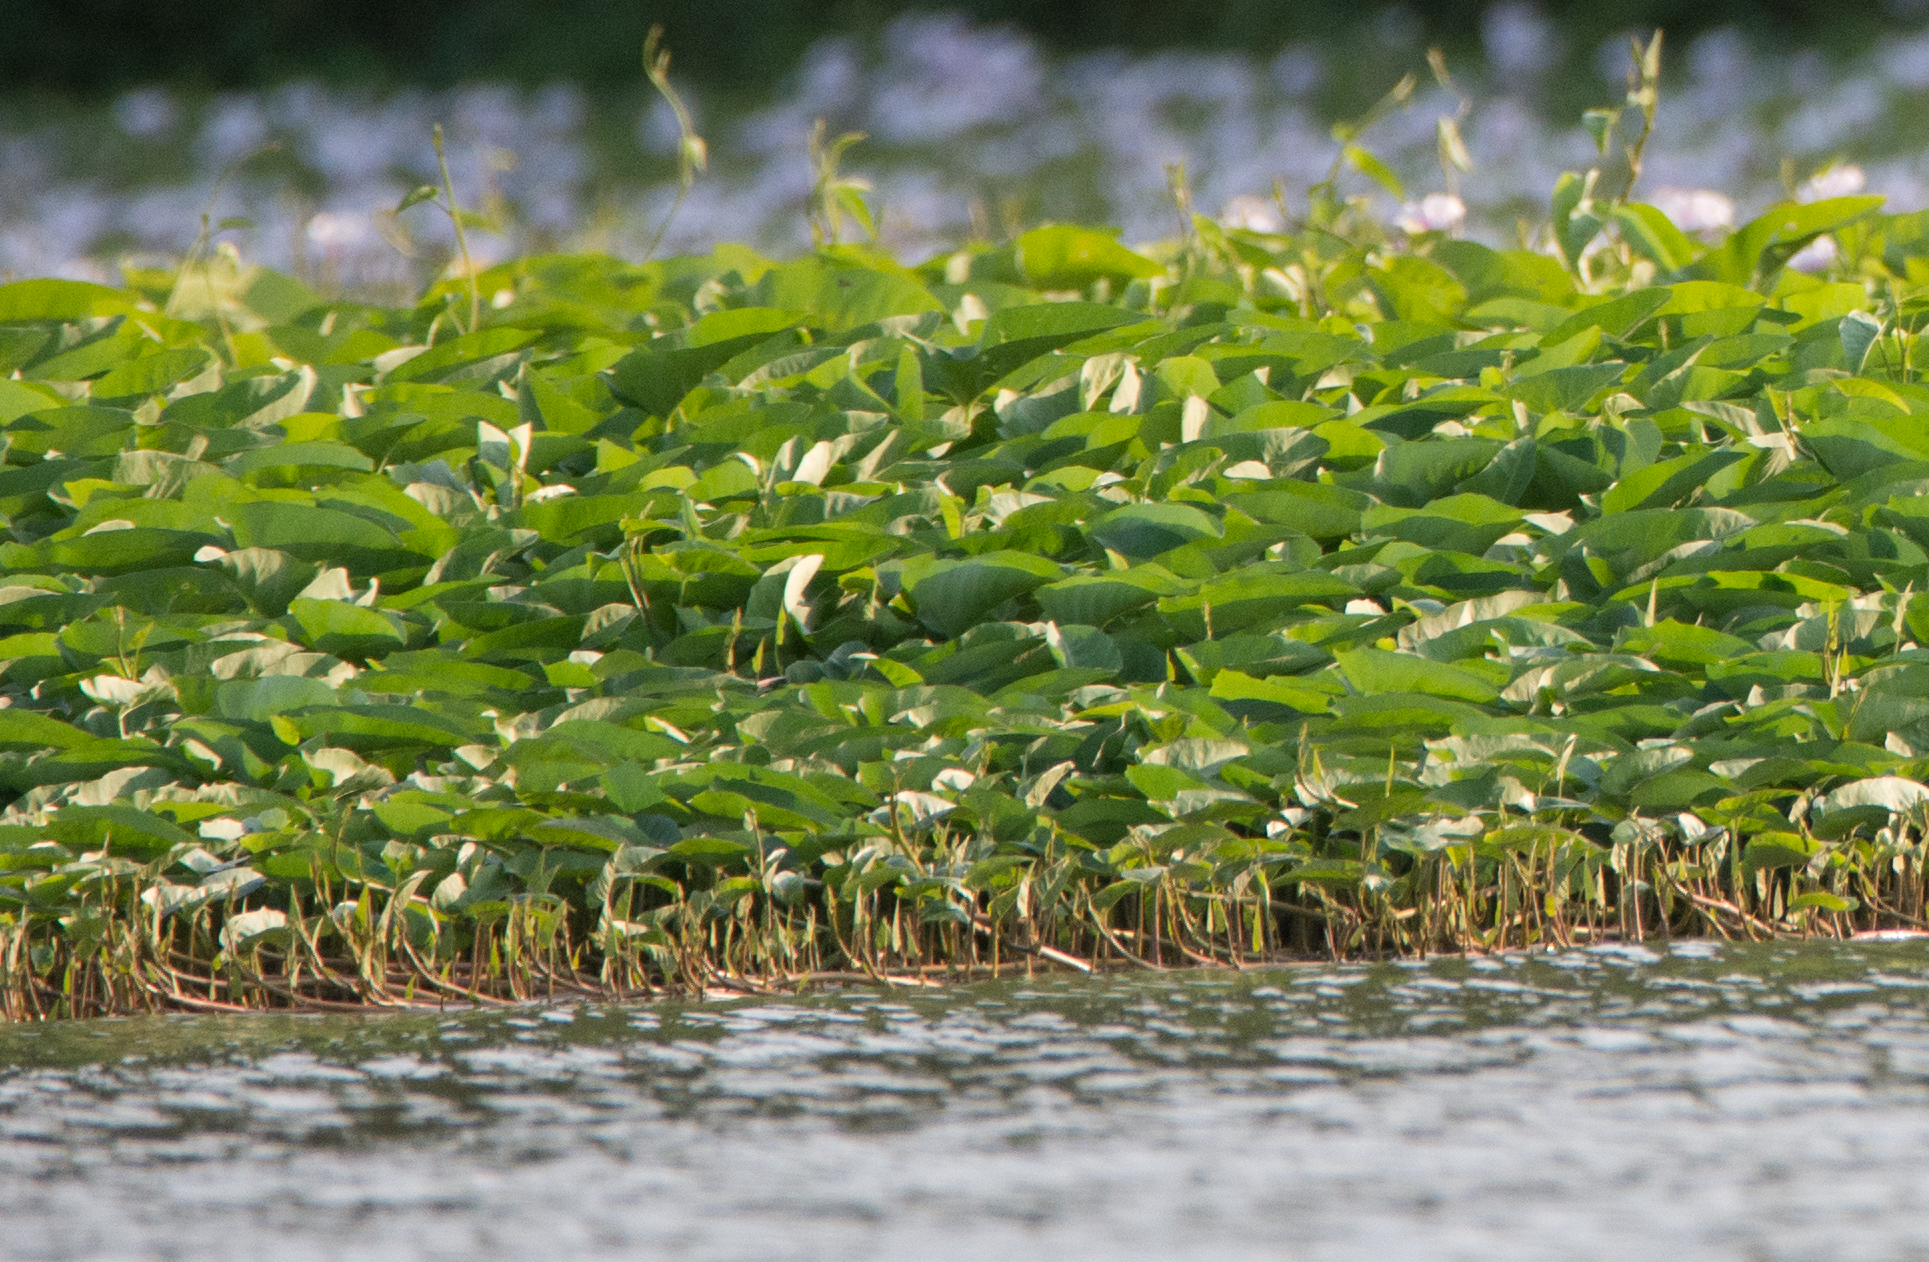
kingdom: Plantae
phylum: Tracheophyta
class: Magnoliopsida
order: Solanales
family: Convolvulaceae
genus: Ipomoea
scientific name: Ipomoea aquatica
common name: Swamp morning-glory
